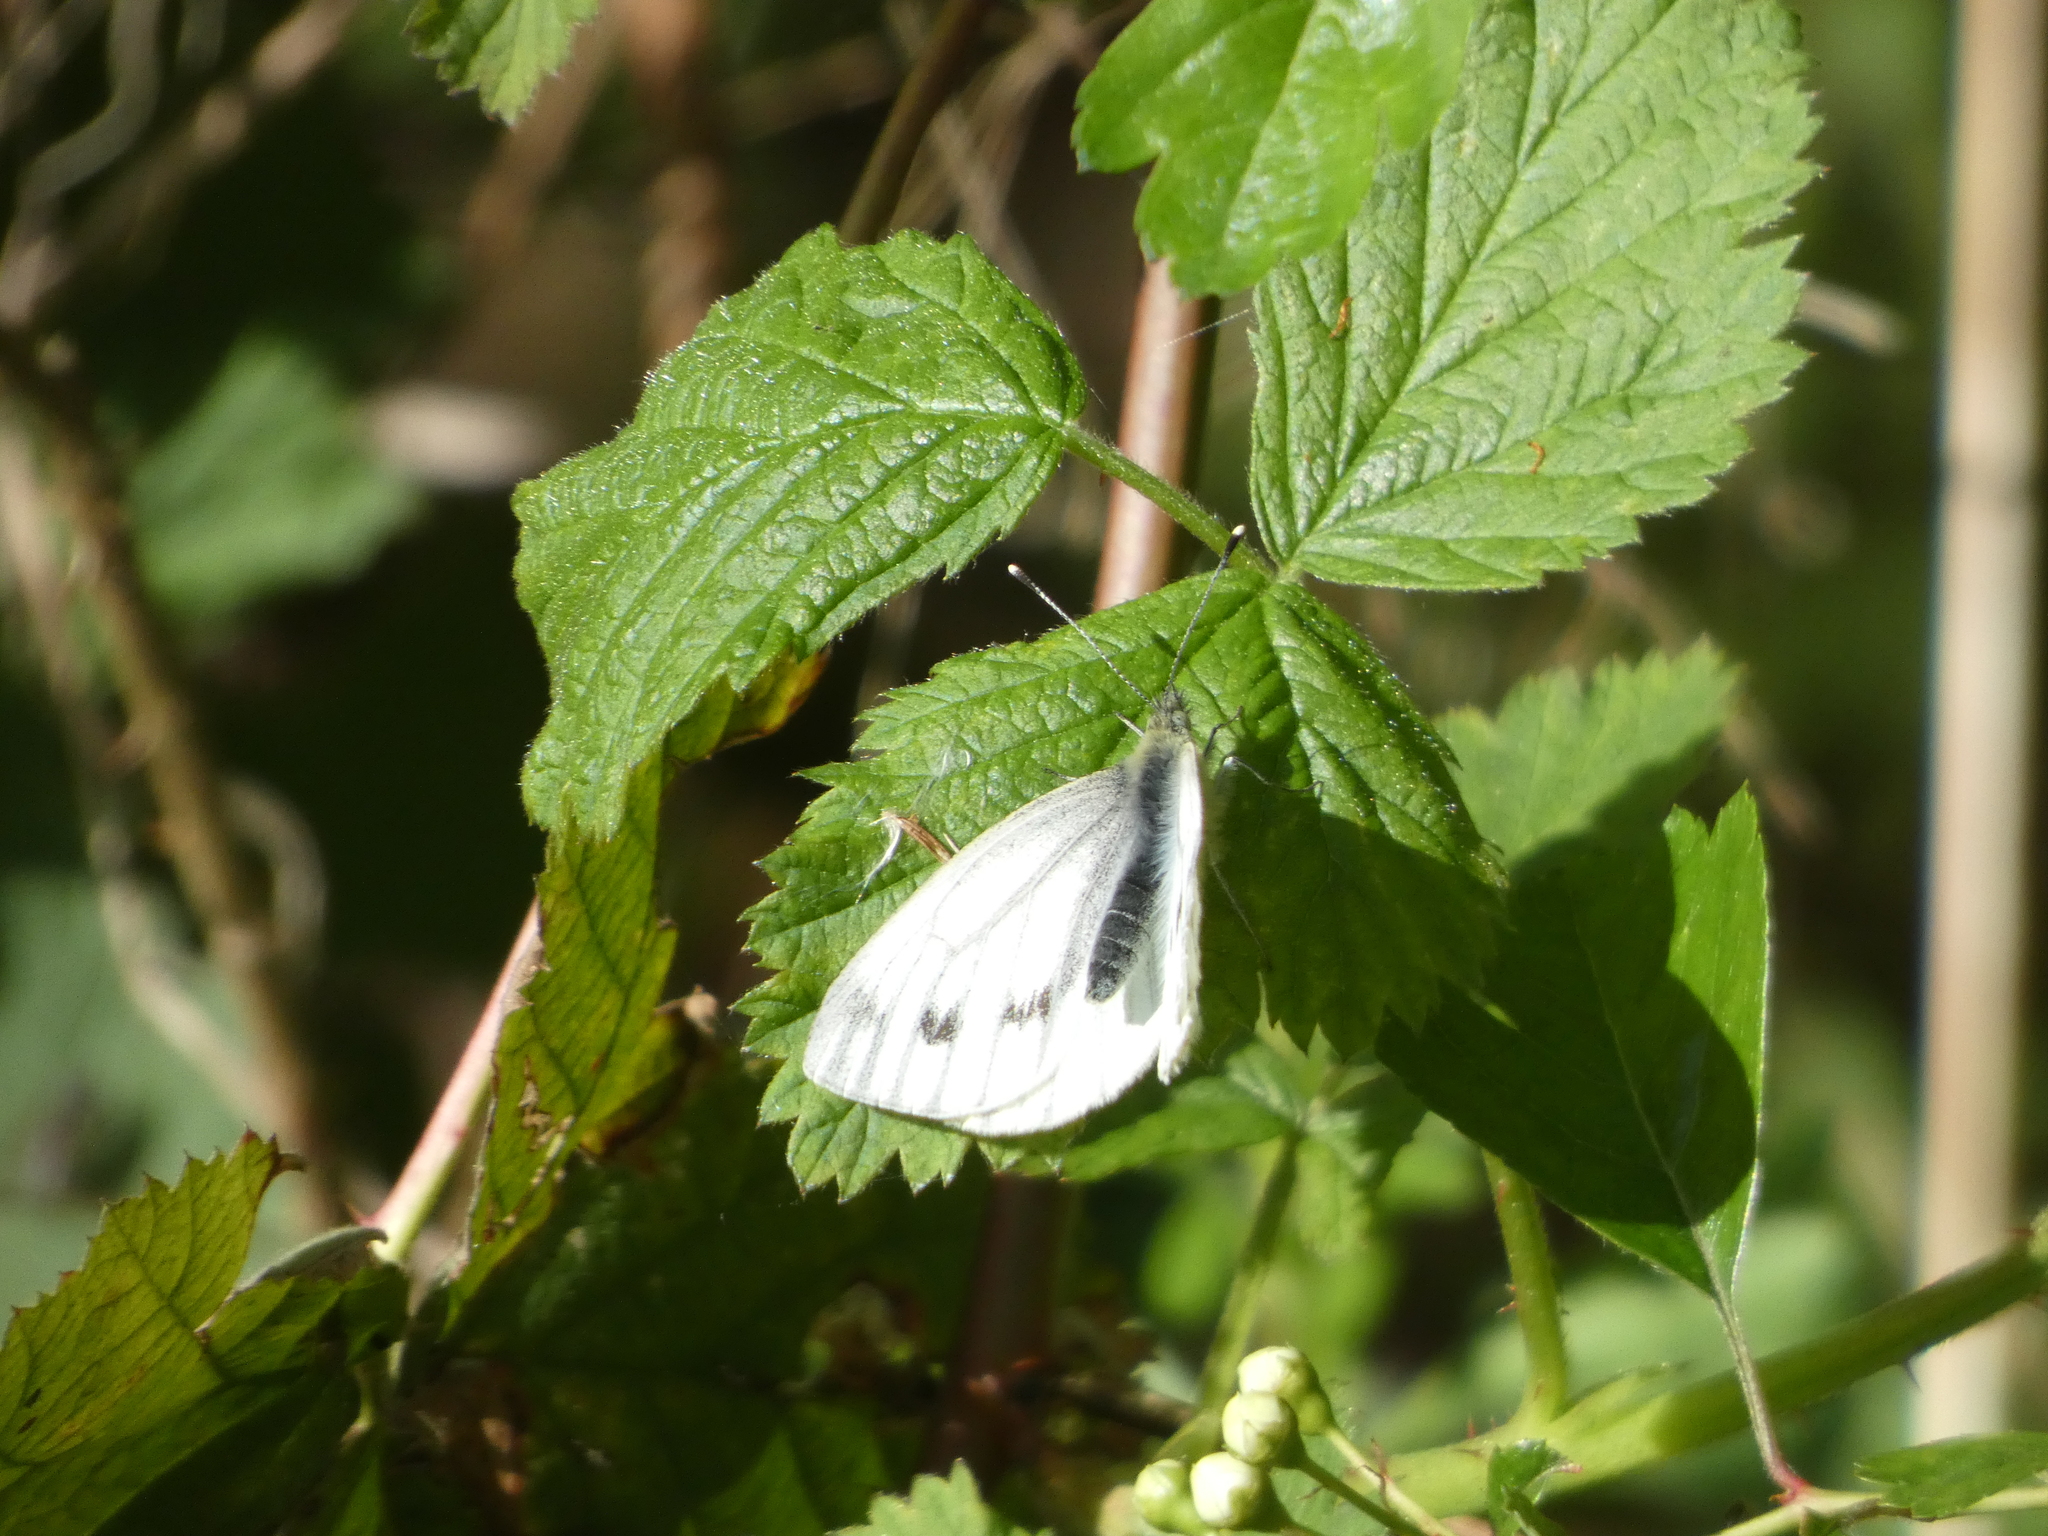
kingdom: Animalia
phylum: Arthropoda
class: Insecta
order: Lepidoptera
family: Pieridae
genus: Pieris
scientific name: Pieris napi
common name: Green-veined white
